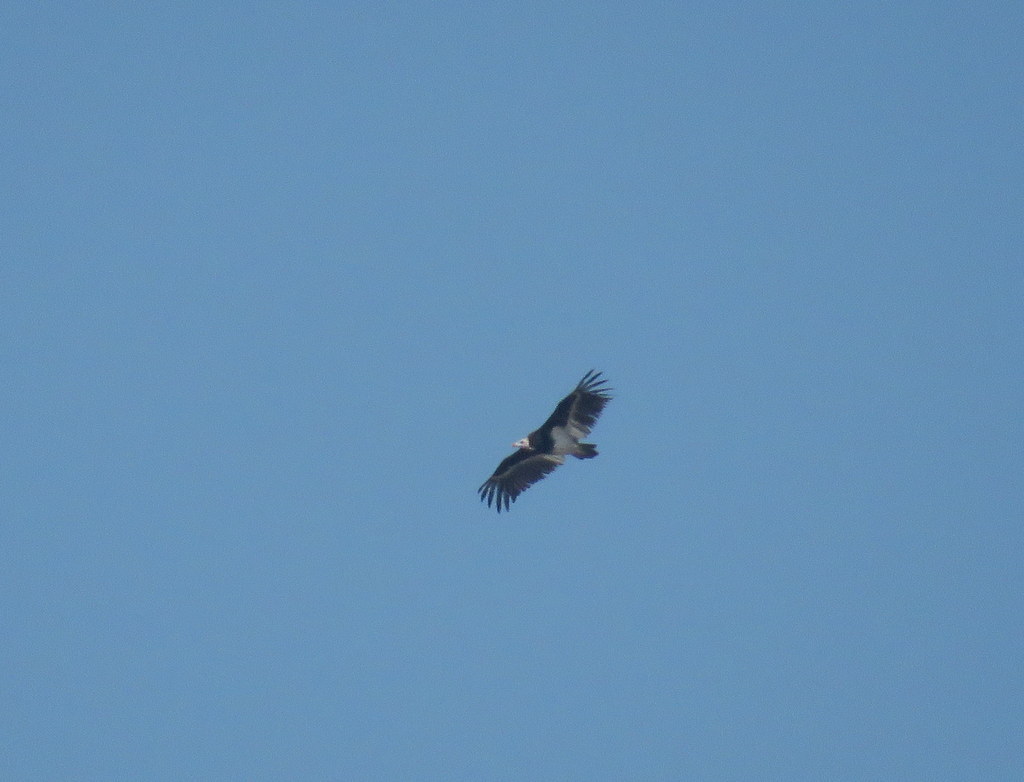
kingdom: Animalia
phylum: Chordata
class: Aves
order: Accipitriformes
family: Accipitridae
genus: Trigonoceps
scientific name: Trigonoceps occipitalis
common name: White-headed vulture
